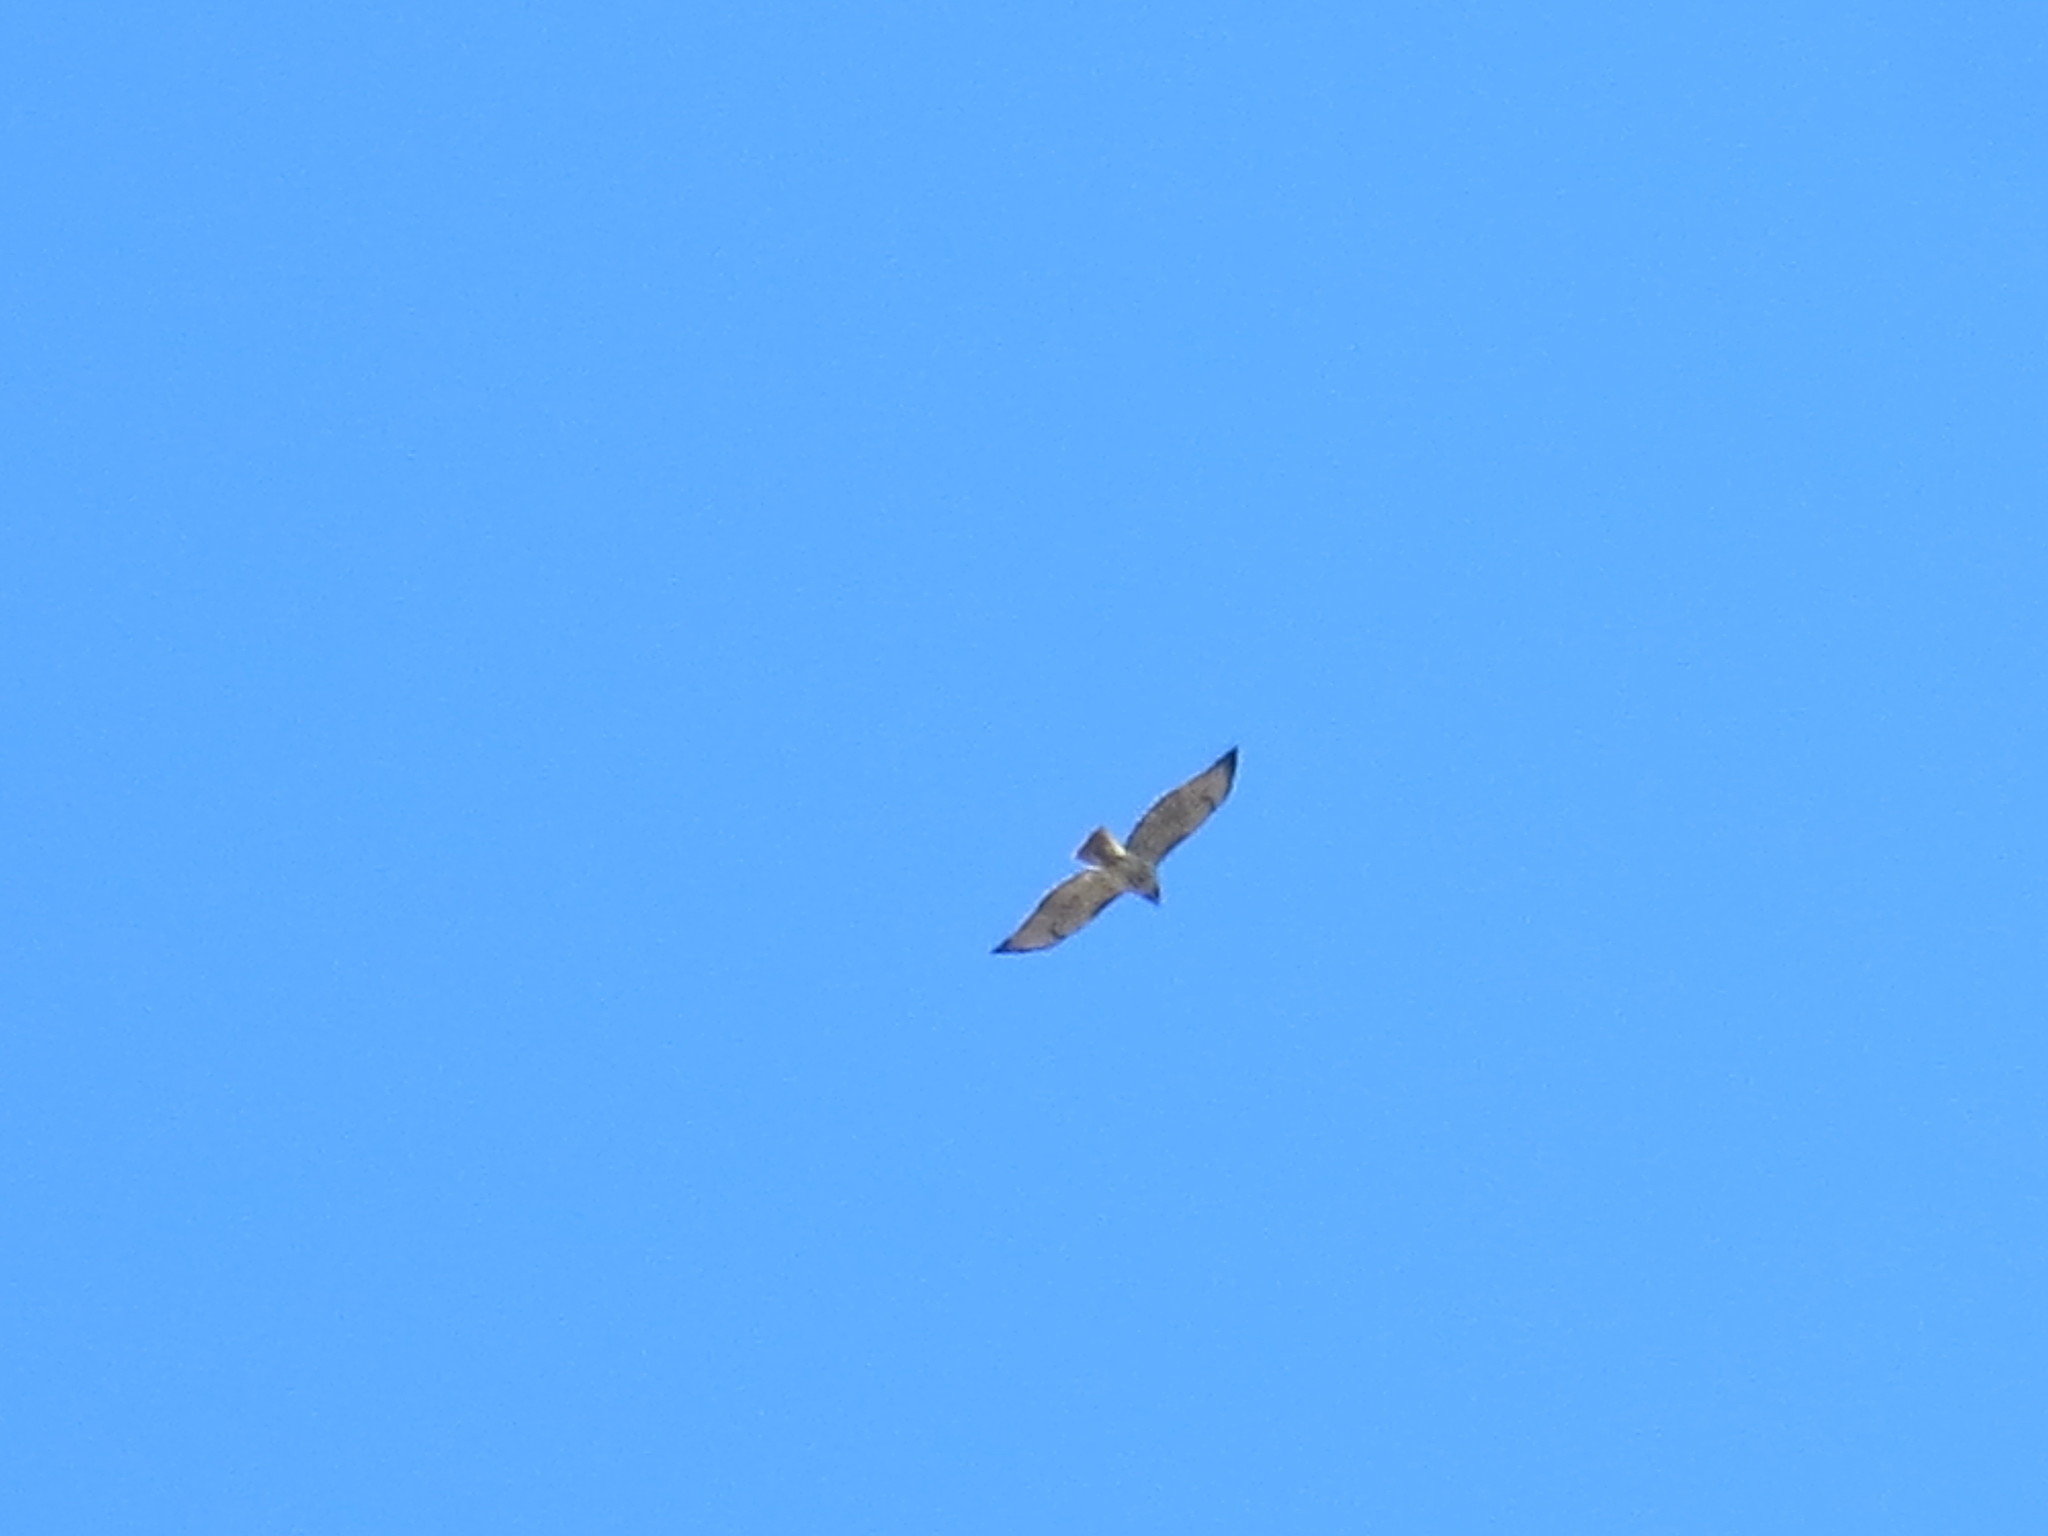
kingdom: Animalia
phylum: Chordata
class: Aves
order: Accipitriformes
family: Accipitridae
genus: Buteo
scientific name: Buteo jamaicensis
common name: Red-tailed hawk
